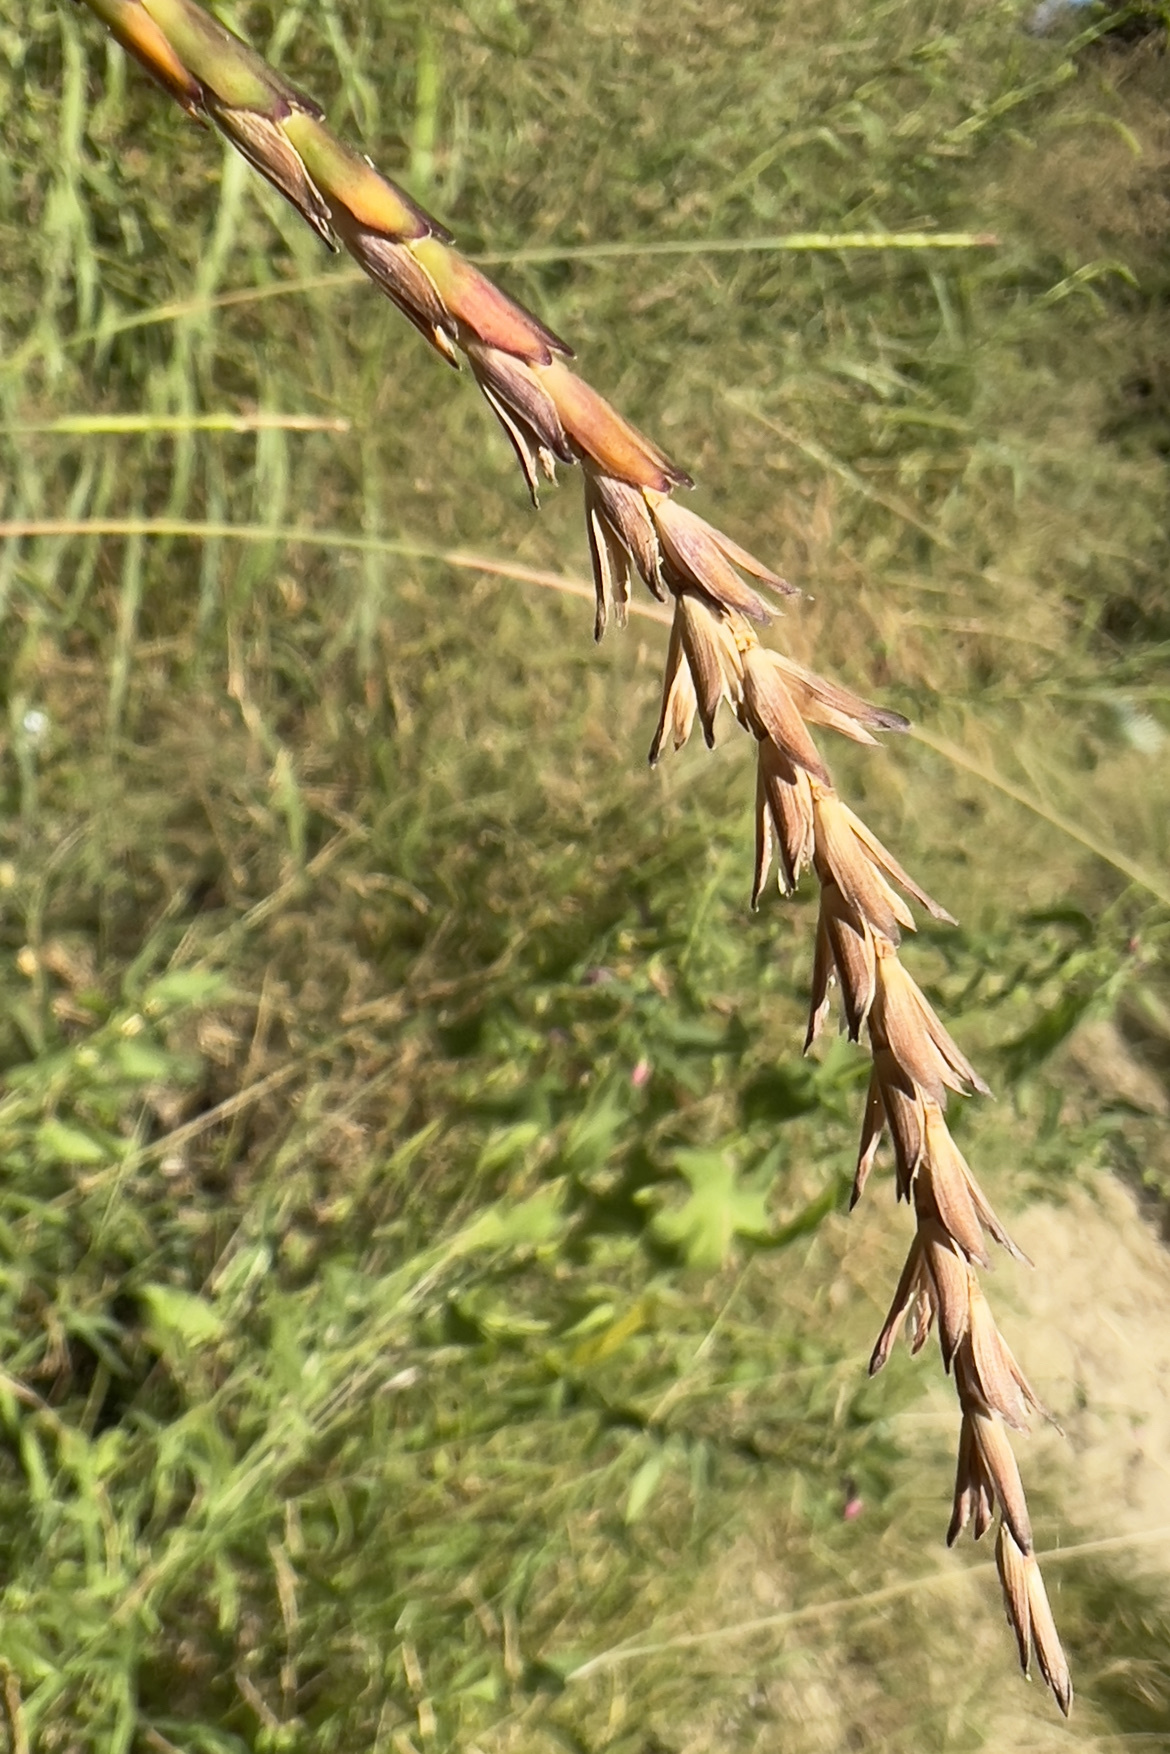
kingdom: Plantae
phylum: Tracheophyta
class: Liliopsida
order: Poales
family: Poaceae
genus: Tripsacum
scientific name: Tripsacum dactyloides
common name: Buffalo-grass
